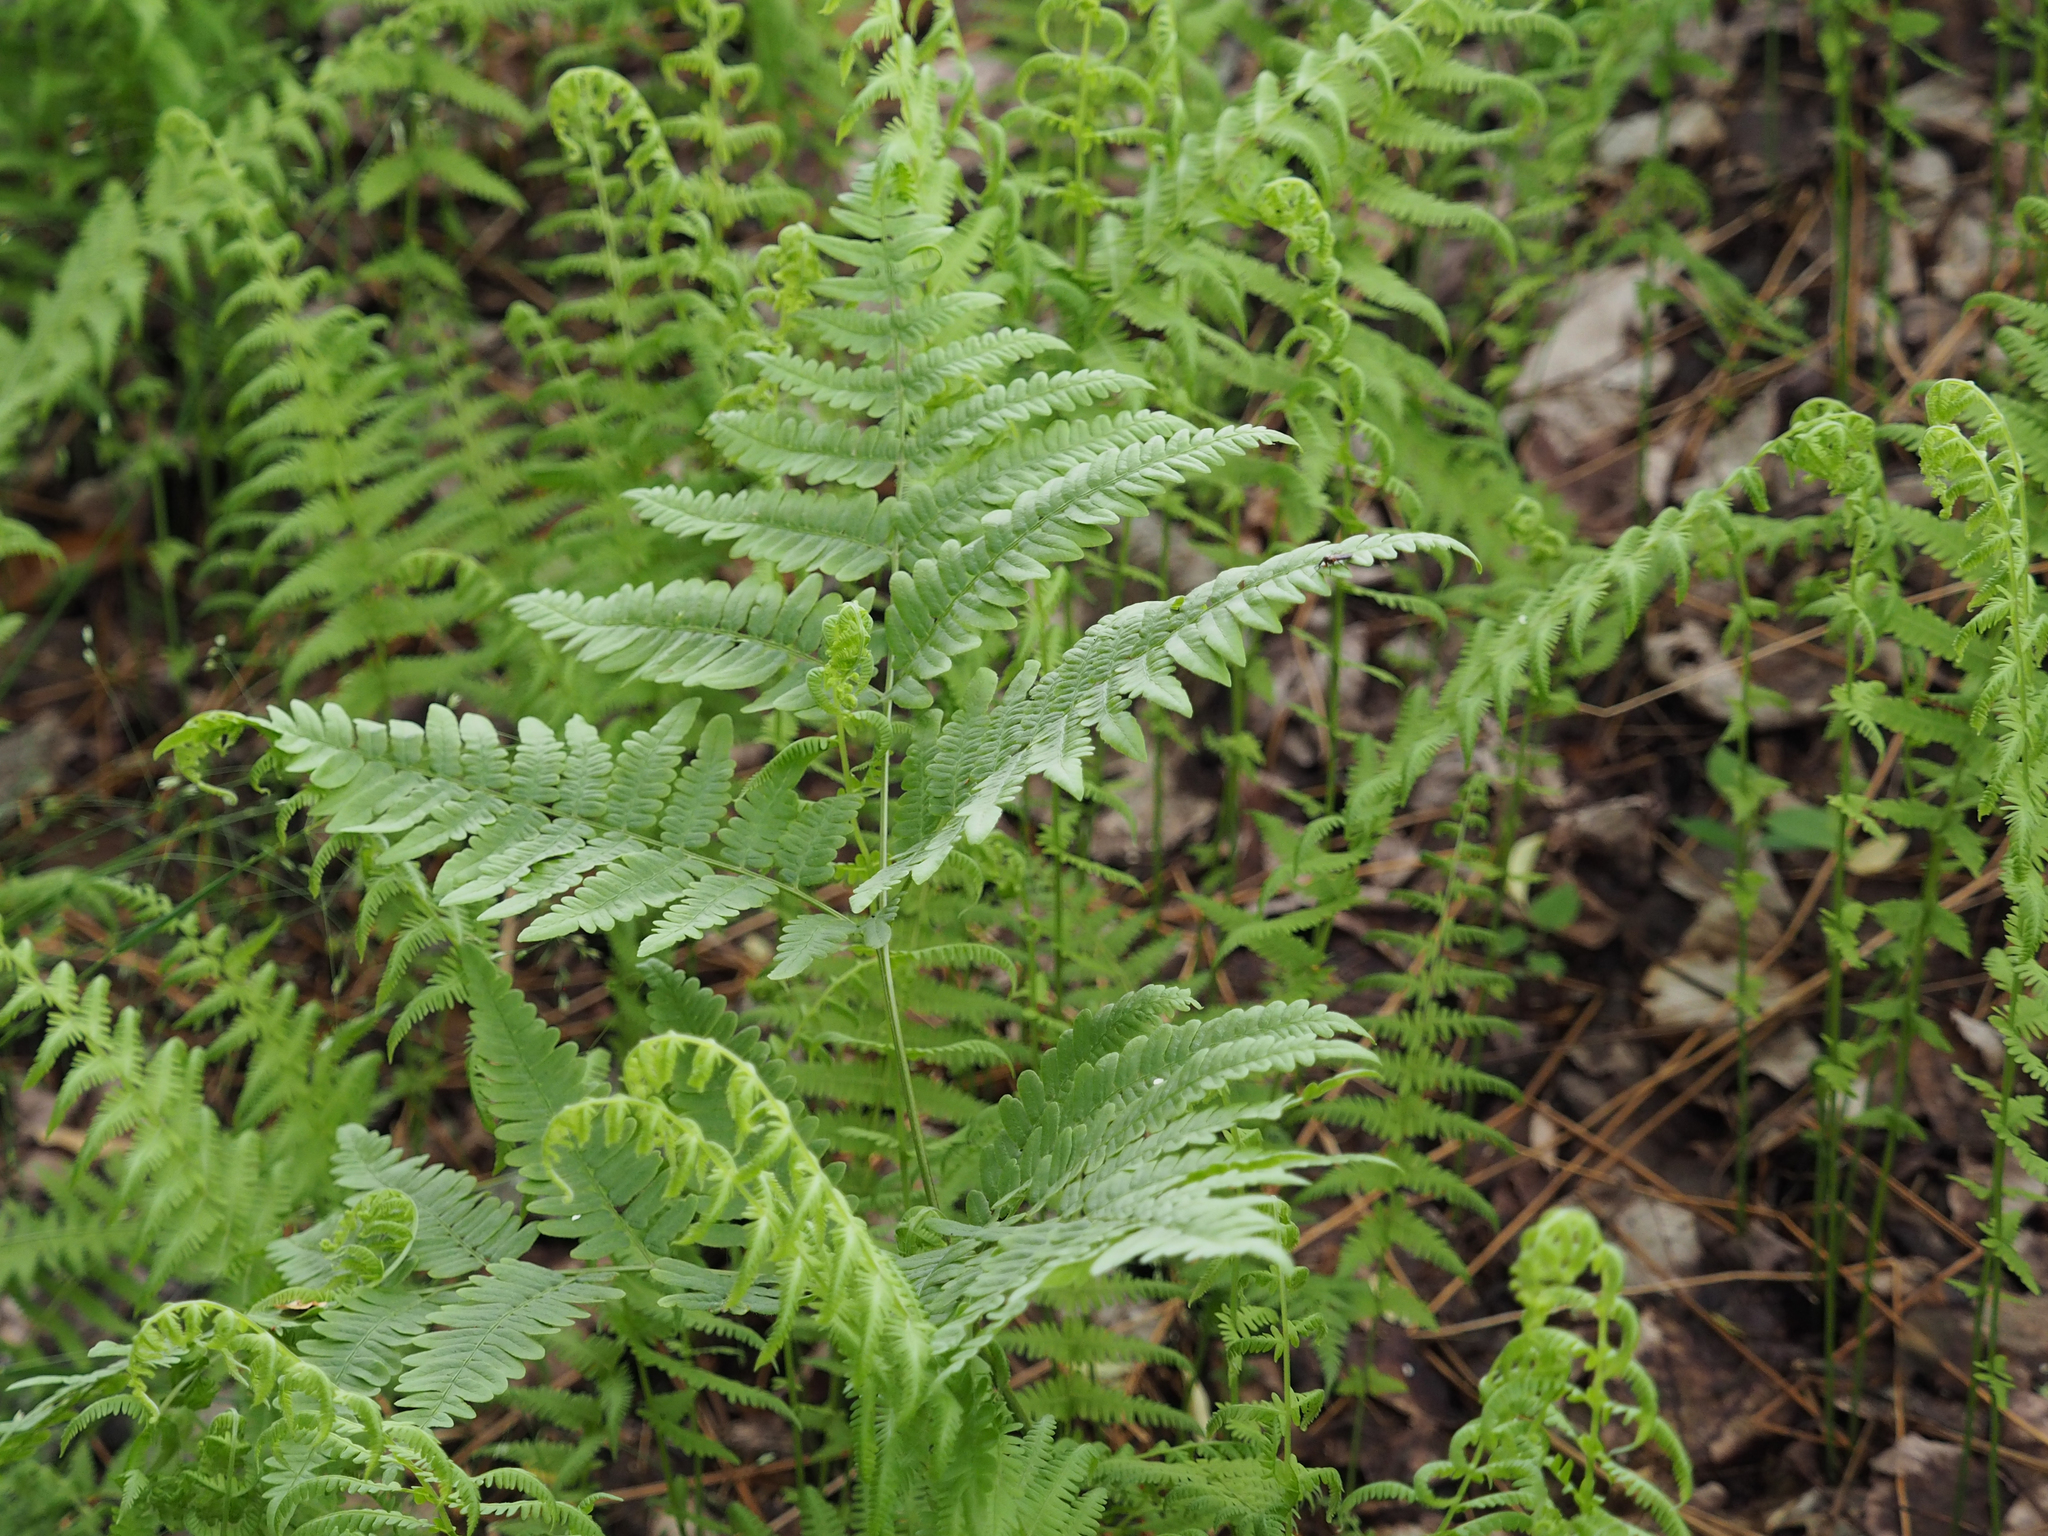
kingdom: Plantae
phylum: Tracheophyta
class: Polypodiopsida
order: Polypodiales
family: Dennstaedtiaceae
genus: Pteridium
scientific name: Pteridium aquilinum
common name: Bracken
